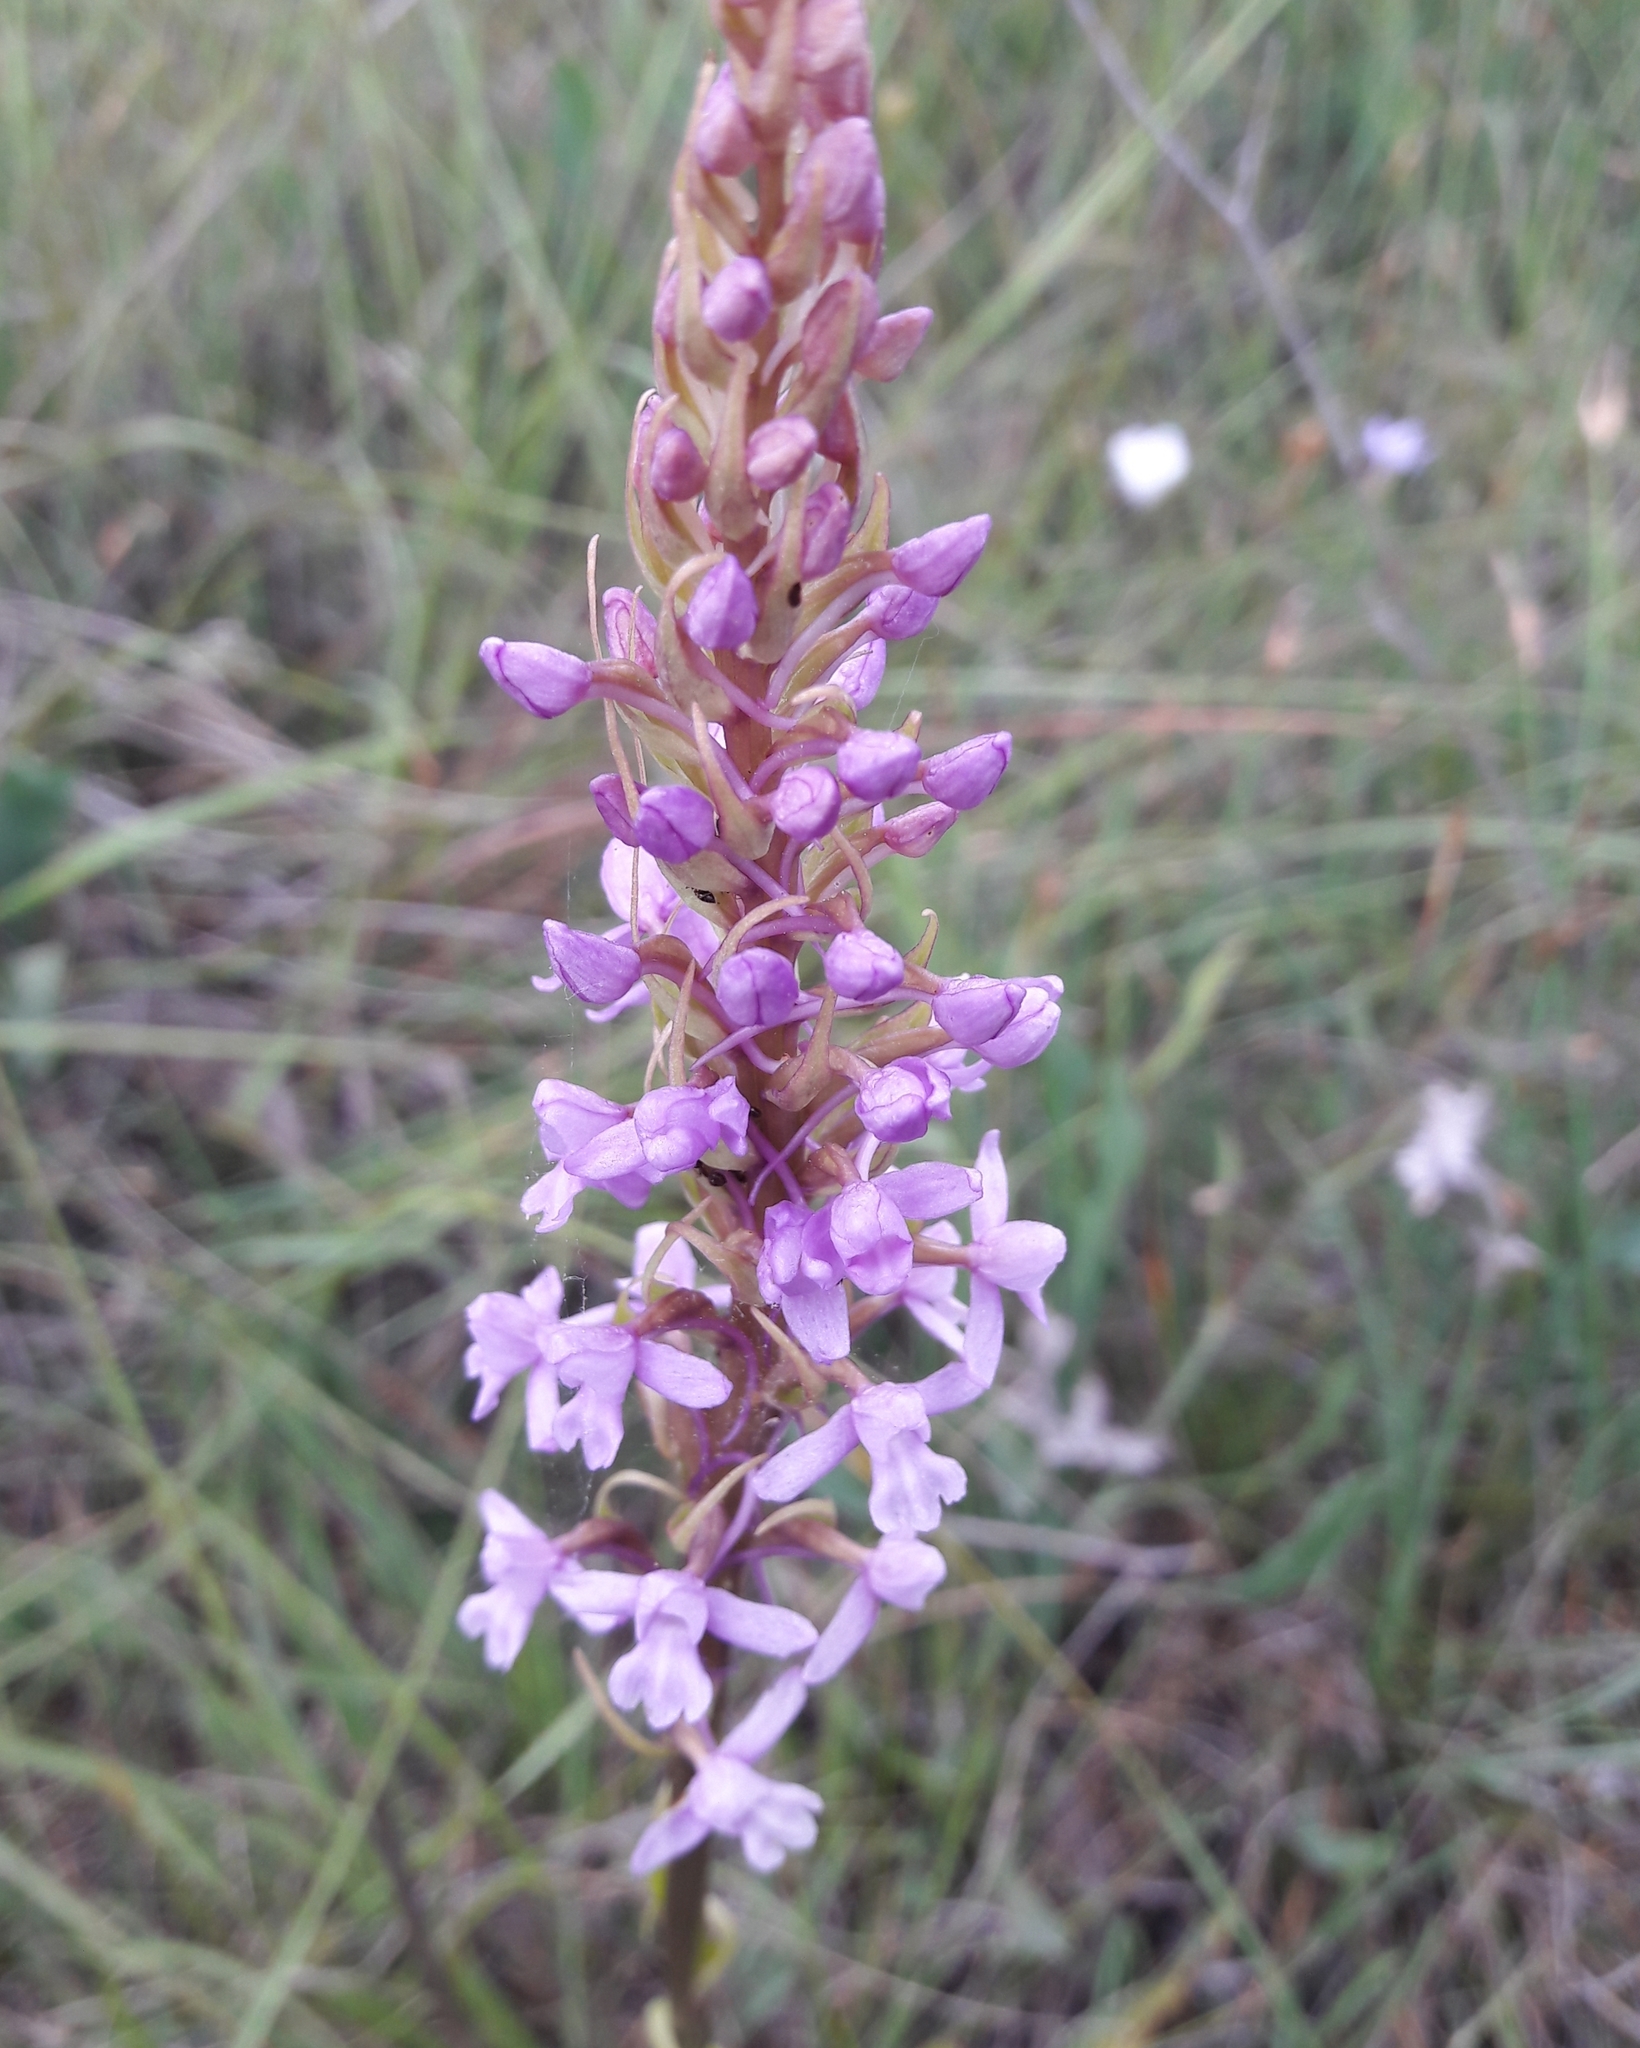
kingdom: Plantae
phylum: Tracheophyta
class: Liliopsida
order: Asparagales
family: Orchidaceae
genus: Gymnadenia
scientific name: Gymnadenia conopsea
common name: Fragrant orchid
